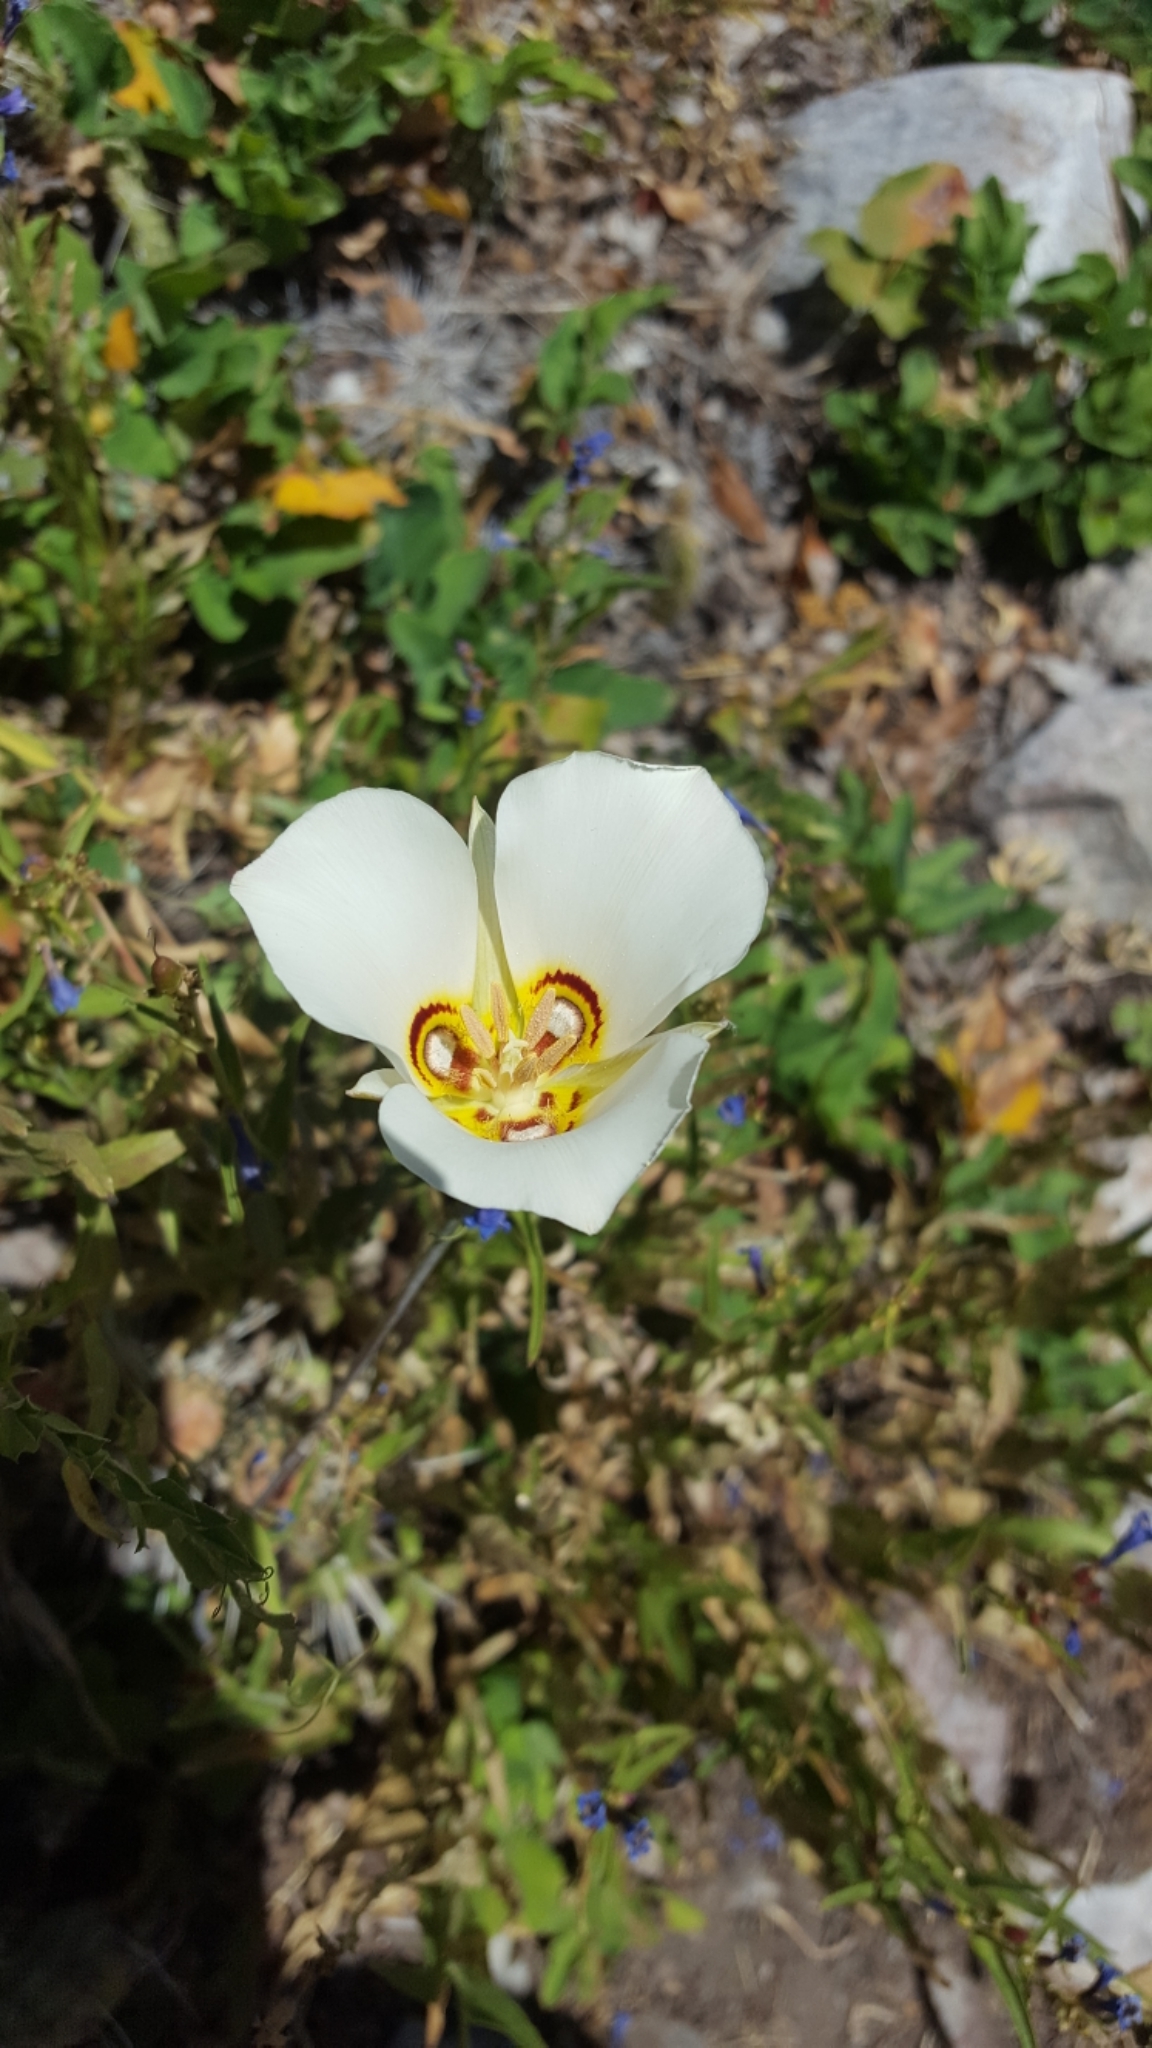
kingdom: Plantae
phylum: Tracheophyta
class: Liliopsida
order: Liliales
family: Liliaceae
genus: Calochortus
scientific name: Calochortus nuttallii
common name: Sego-lily
